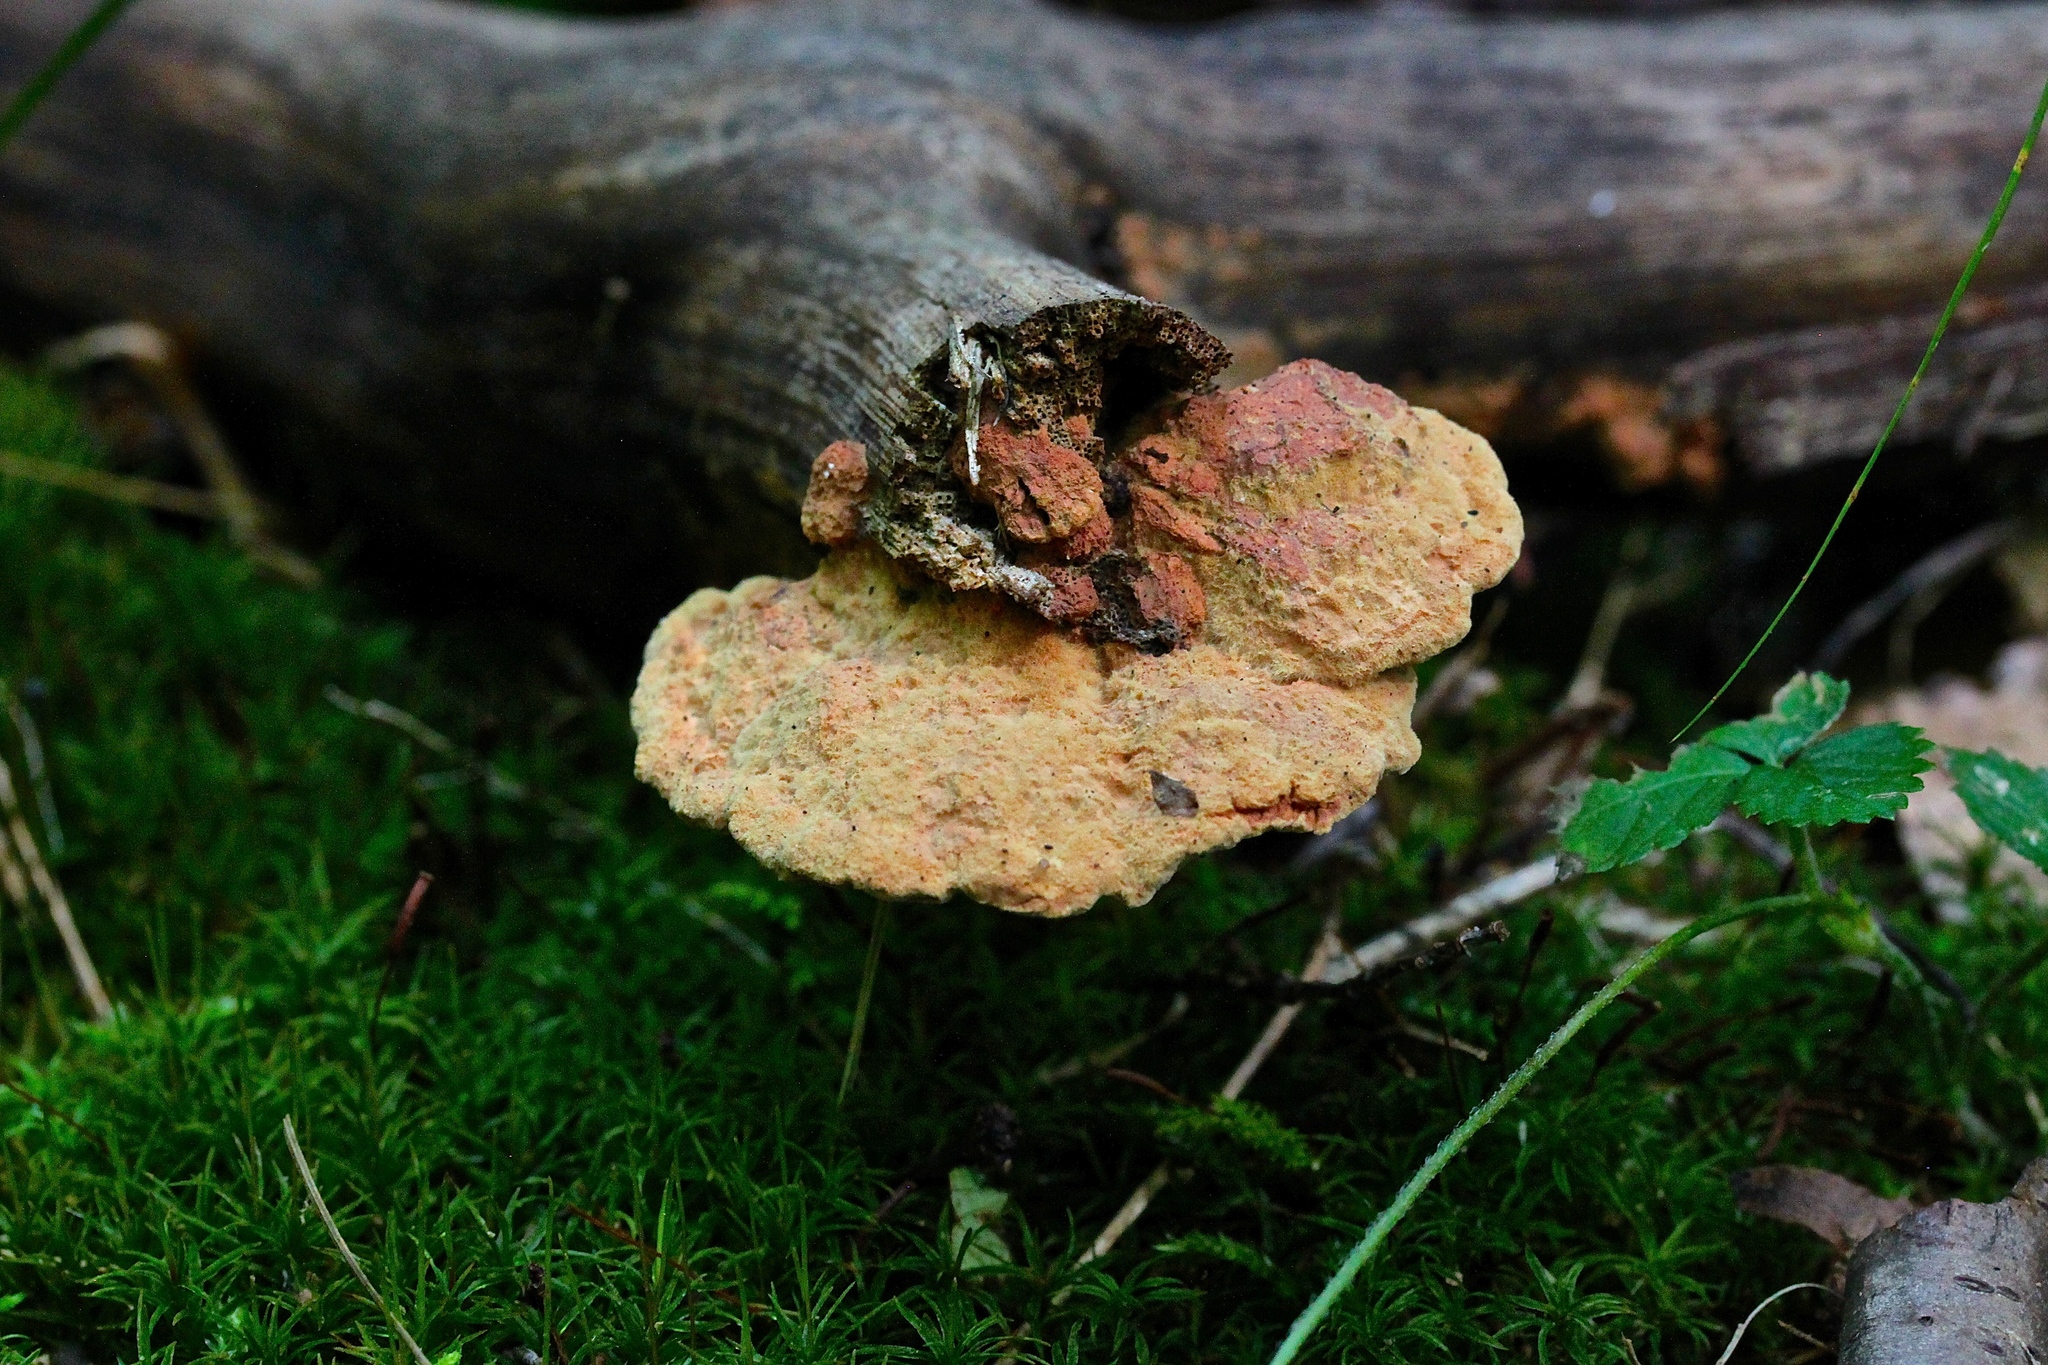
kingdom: Fungi
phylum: Basidiomycota
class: Agaricomycetes
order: Polyporales
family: Phanerochaetaceae
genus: Hapalopilus
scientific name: Hapalopilus rutilans
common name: Tender nesting polypore
